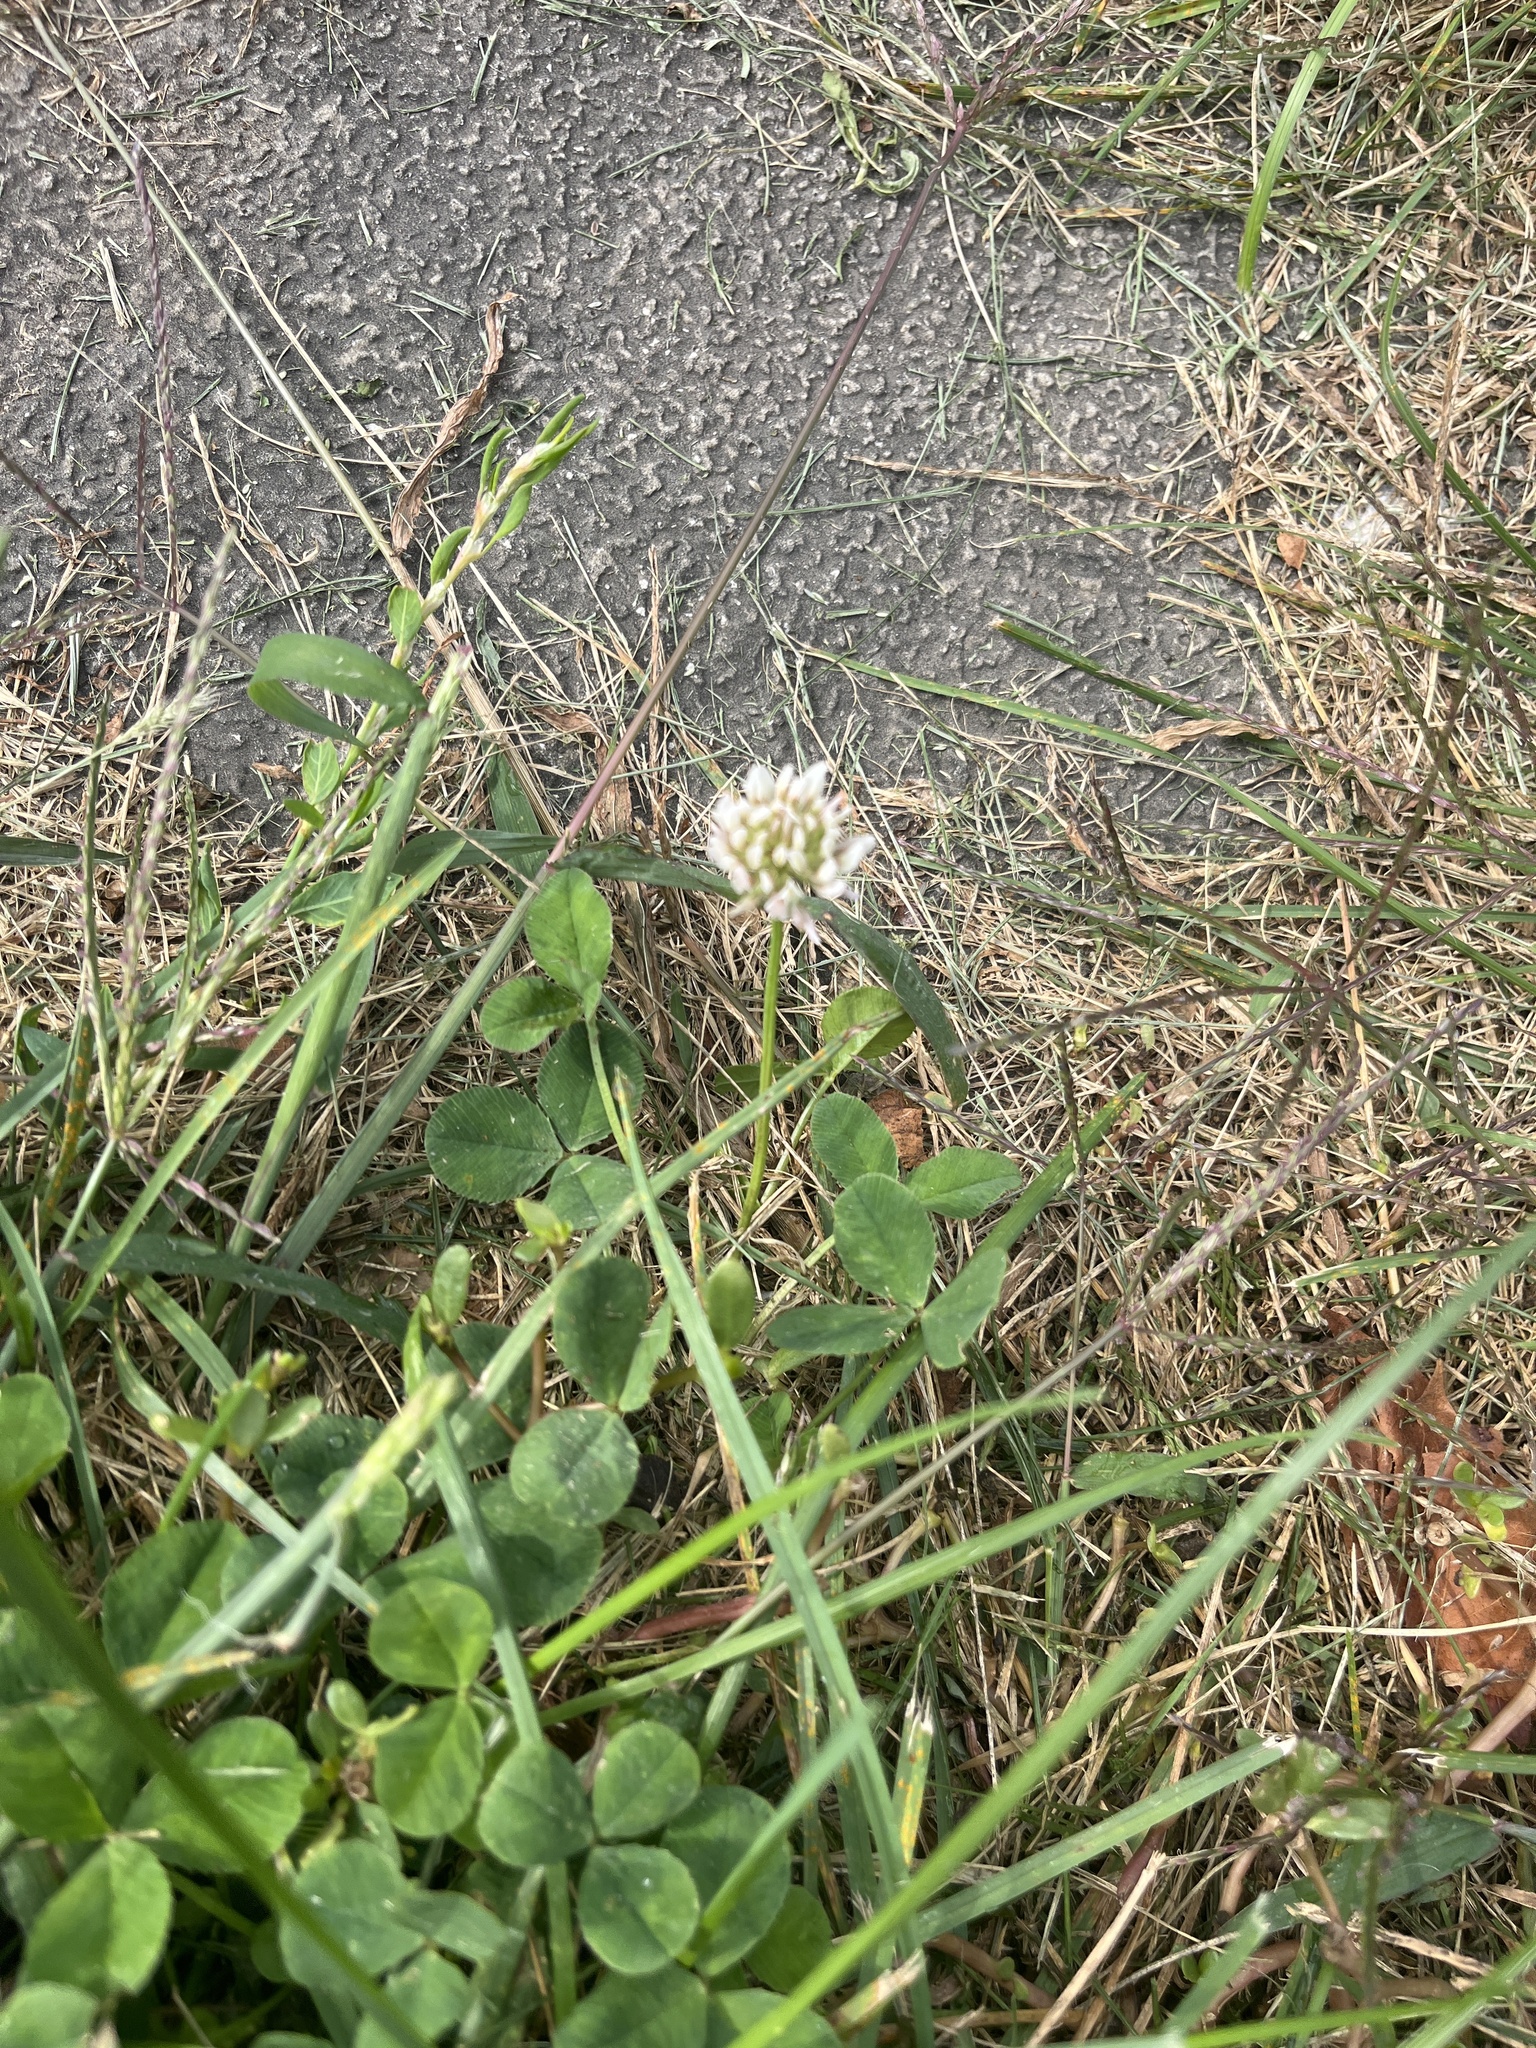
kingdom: Plantae
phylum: Tracheophyta
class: Magnoliopsida
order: Fabales
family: Fabaceae
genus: Trifolium
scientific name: Trifolium repens
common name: White clover
